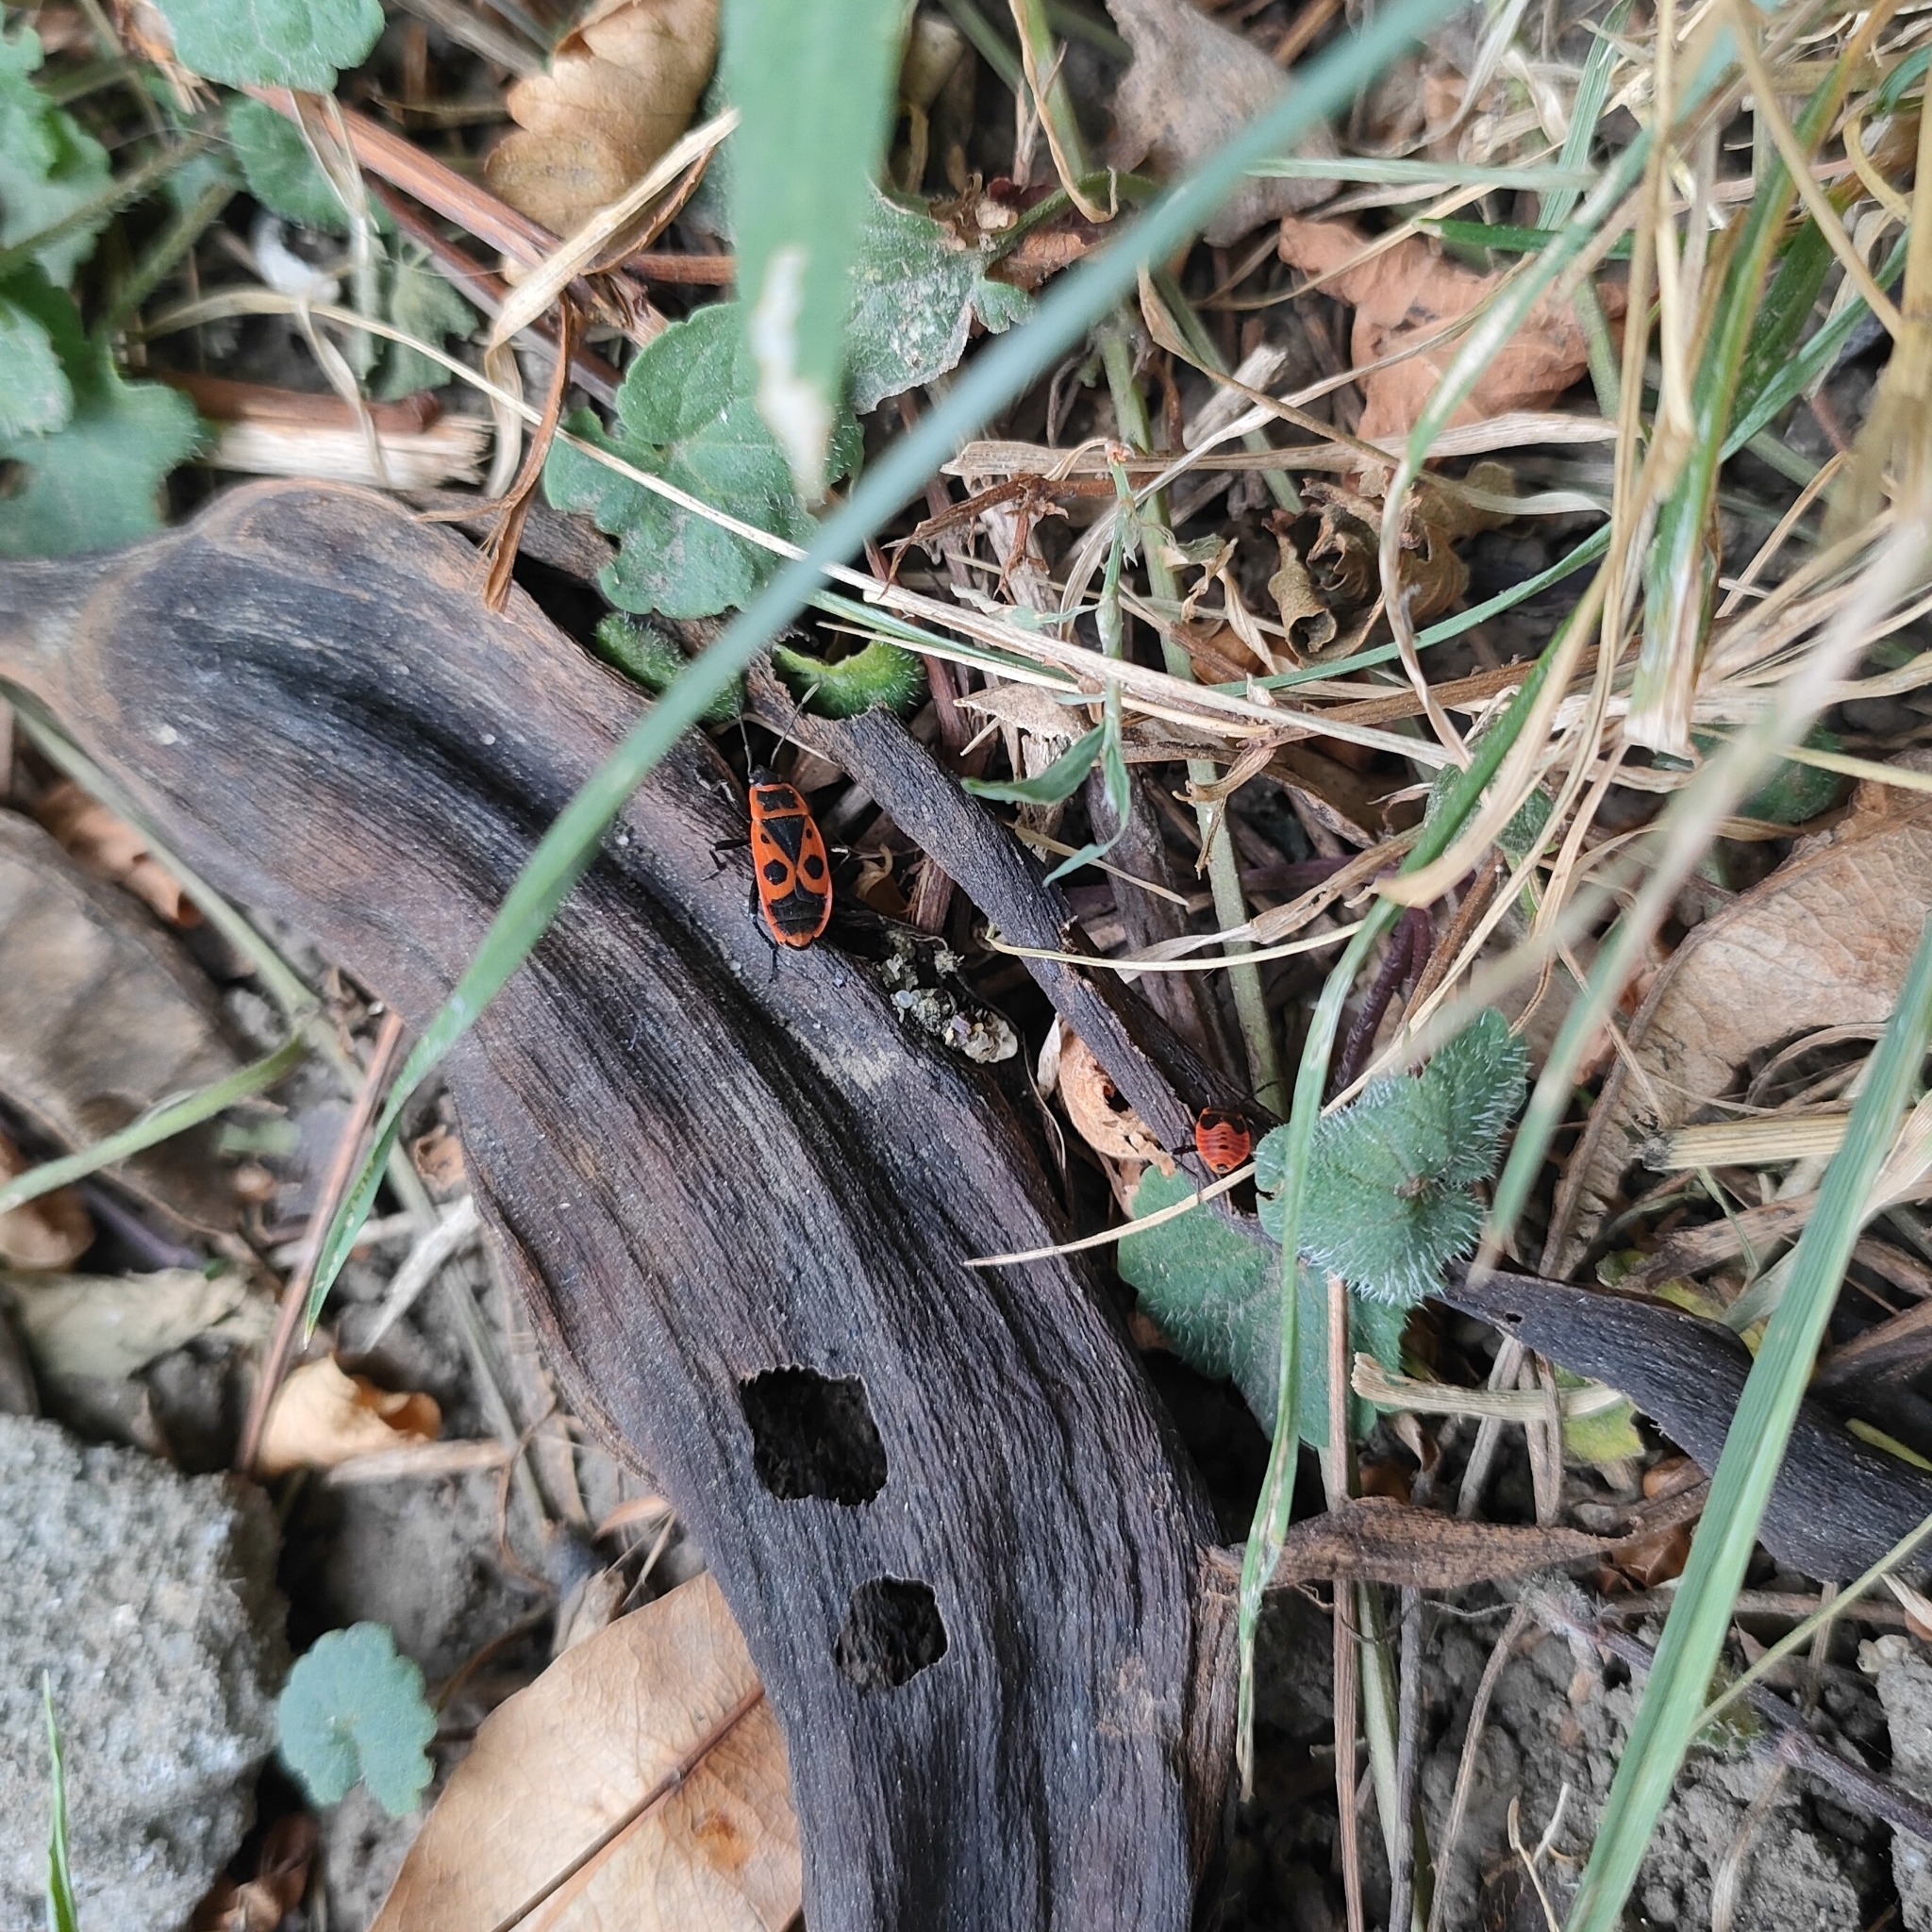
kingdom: Animalia
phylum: Arthropoda
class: Insecta
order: Hemiptera
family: Pyrrhocoridae
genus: Pyrrhocoris
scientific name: Pyrrhocoris apterus
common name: Firebug
